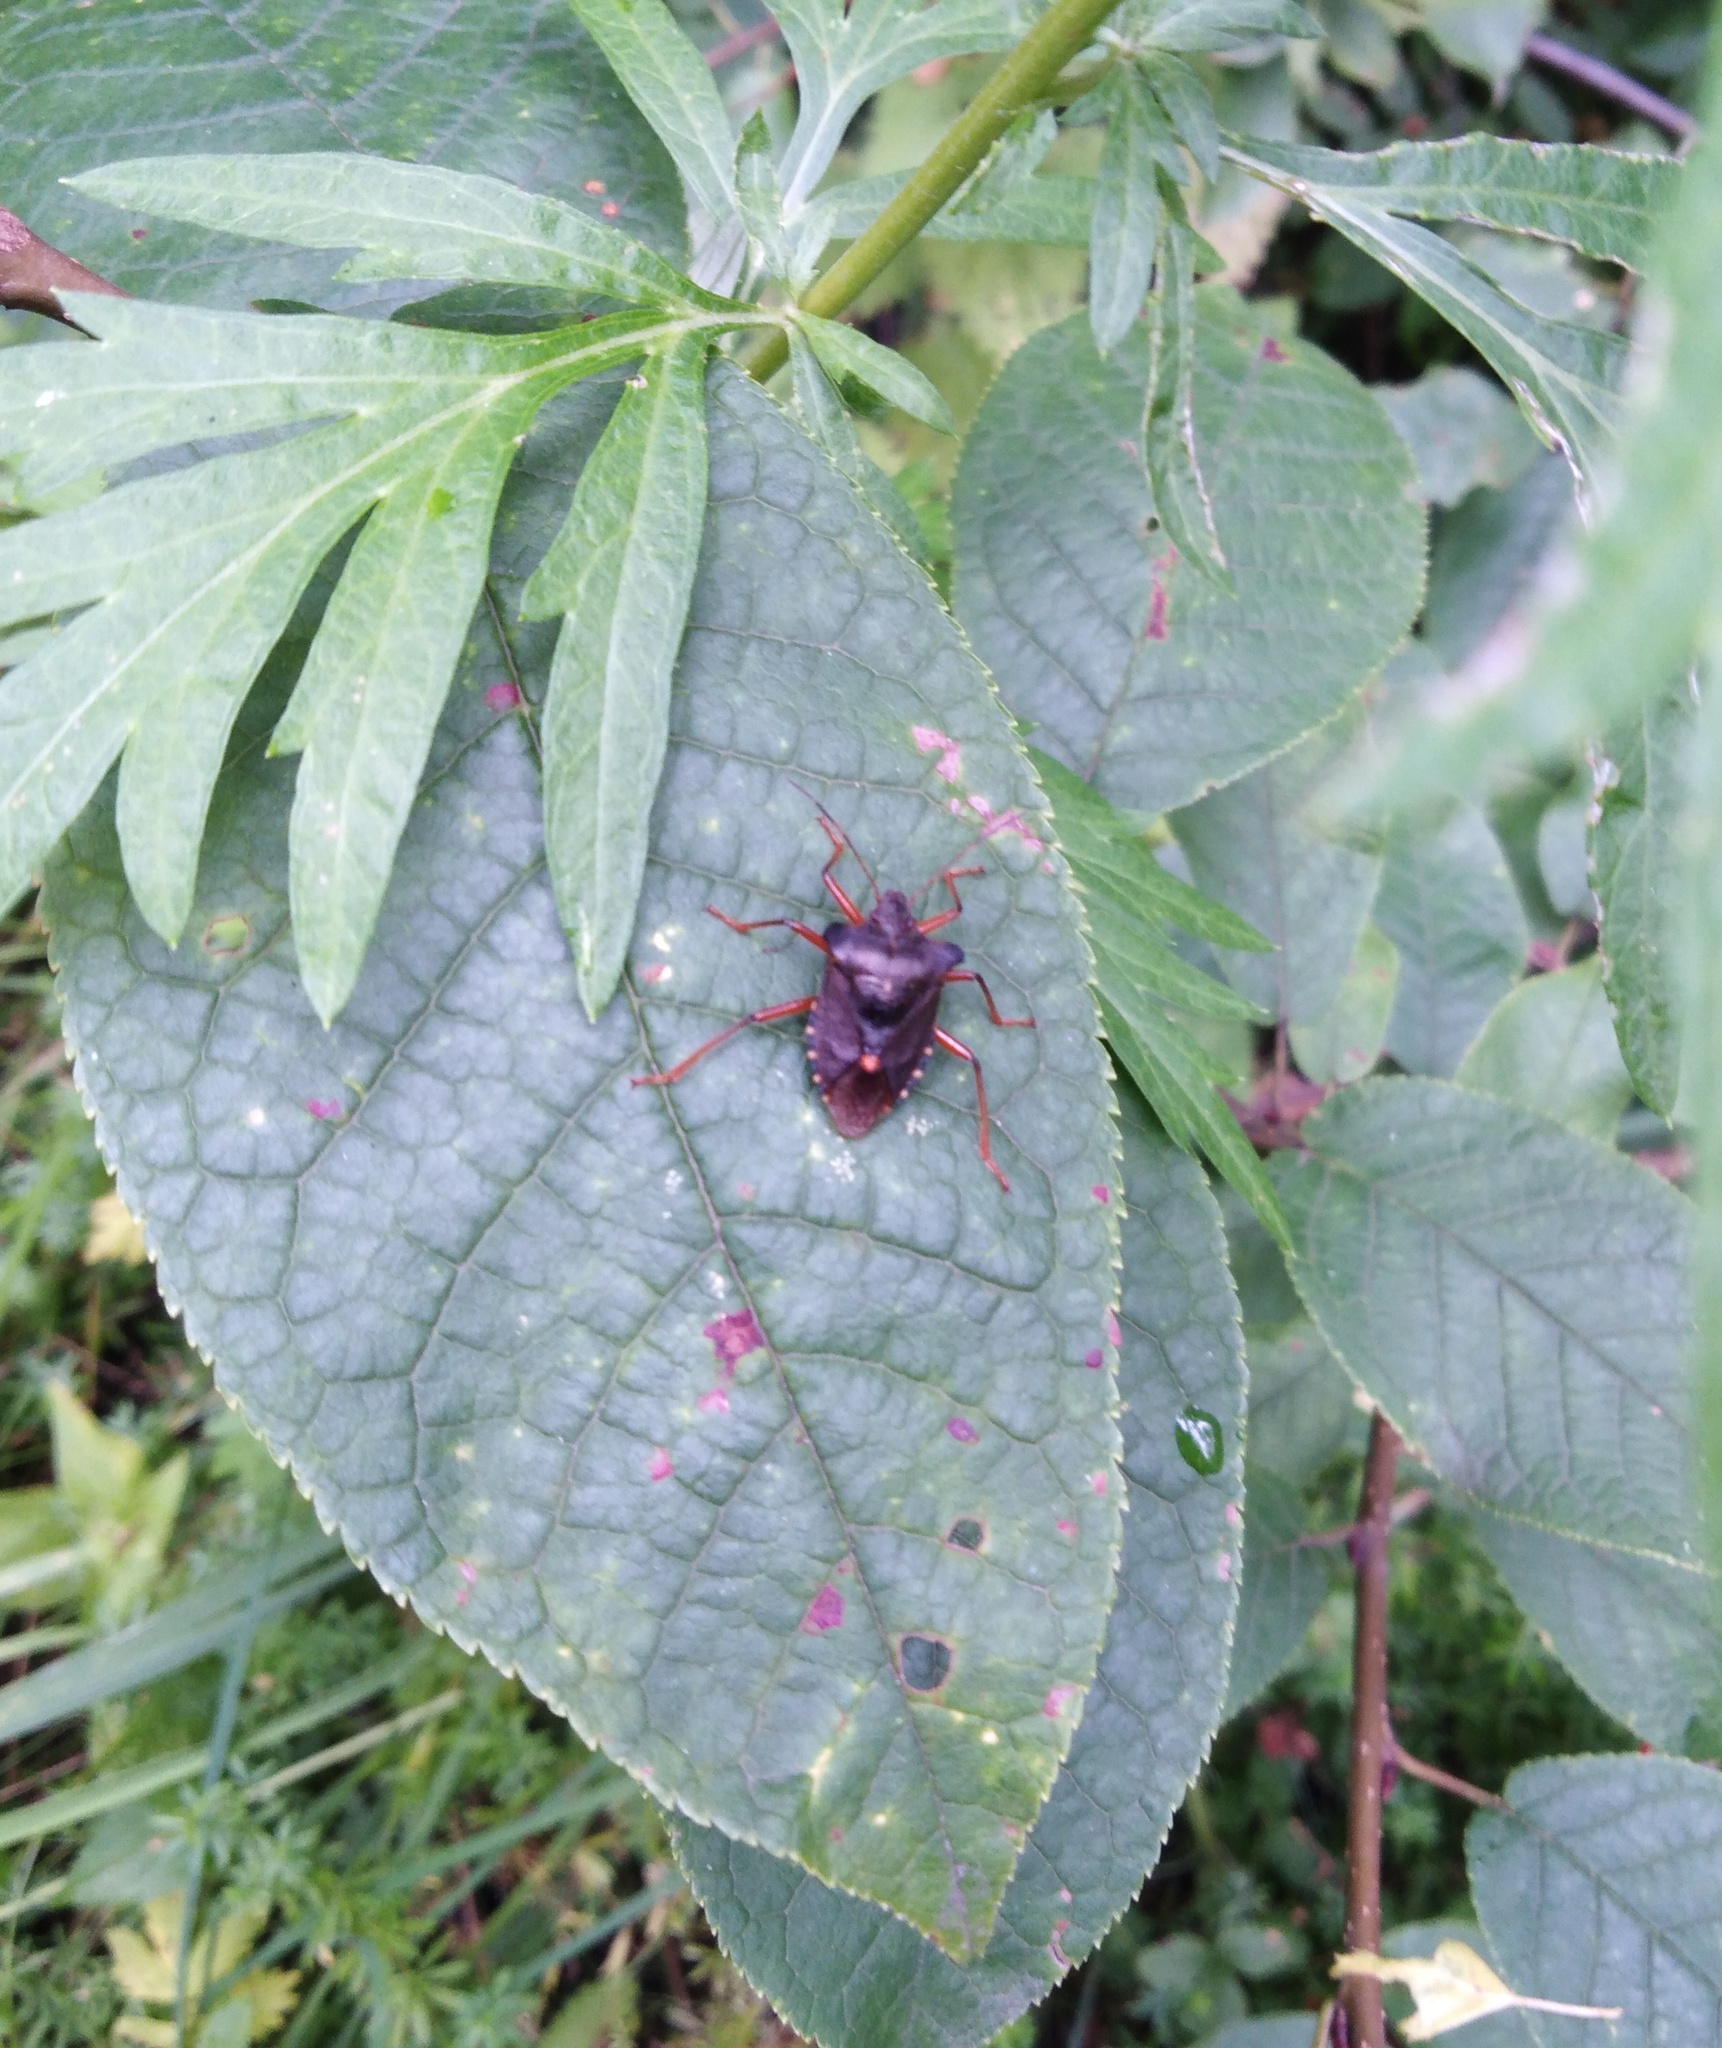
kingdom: Animalia
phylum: Arthropoda
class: Insecta
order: Hemiptera
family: Pentatomidae
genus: Pentatoma
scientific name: Pentatoma rufipes
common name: Forest bug
